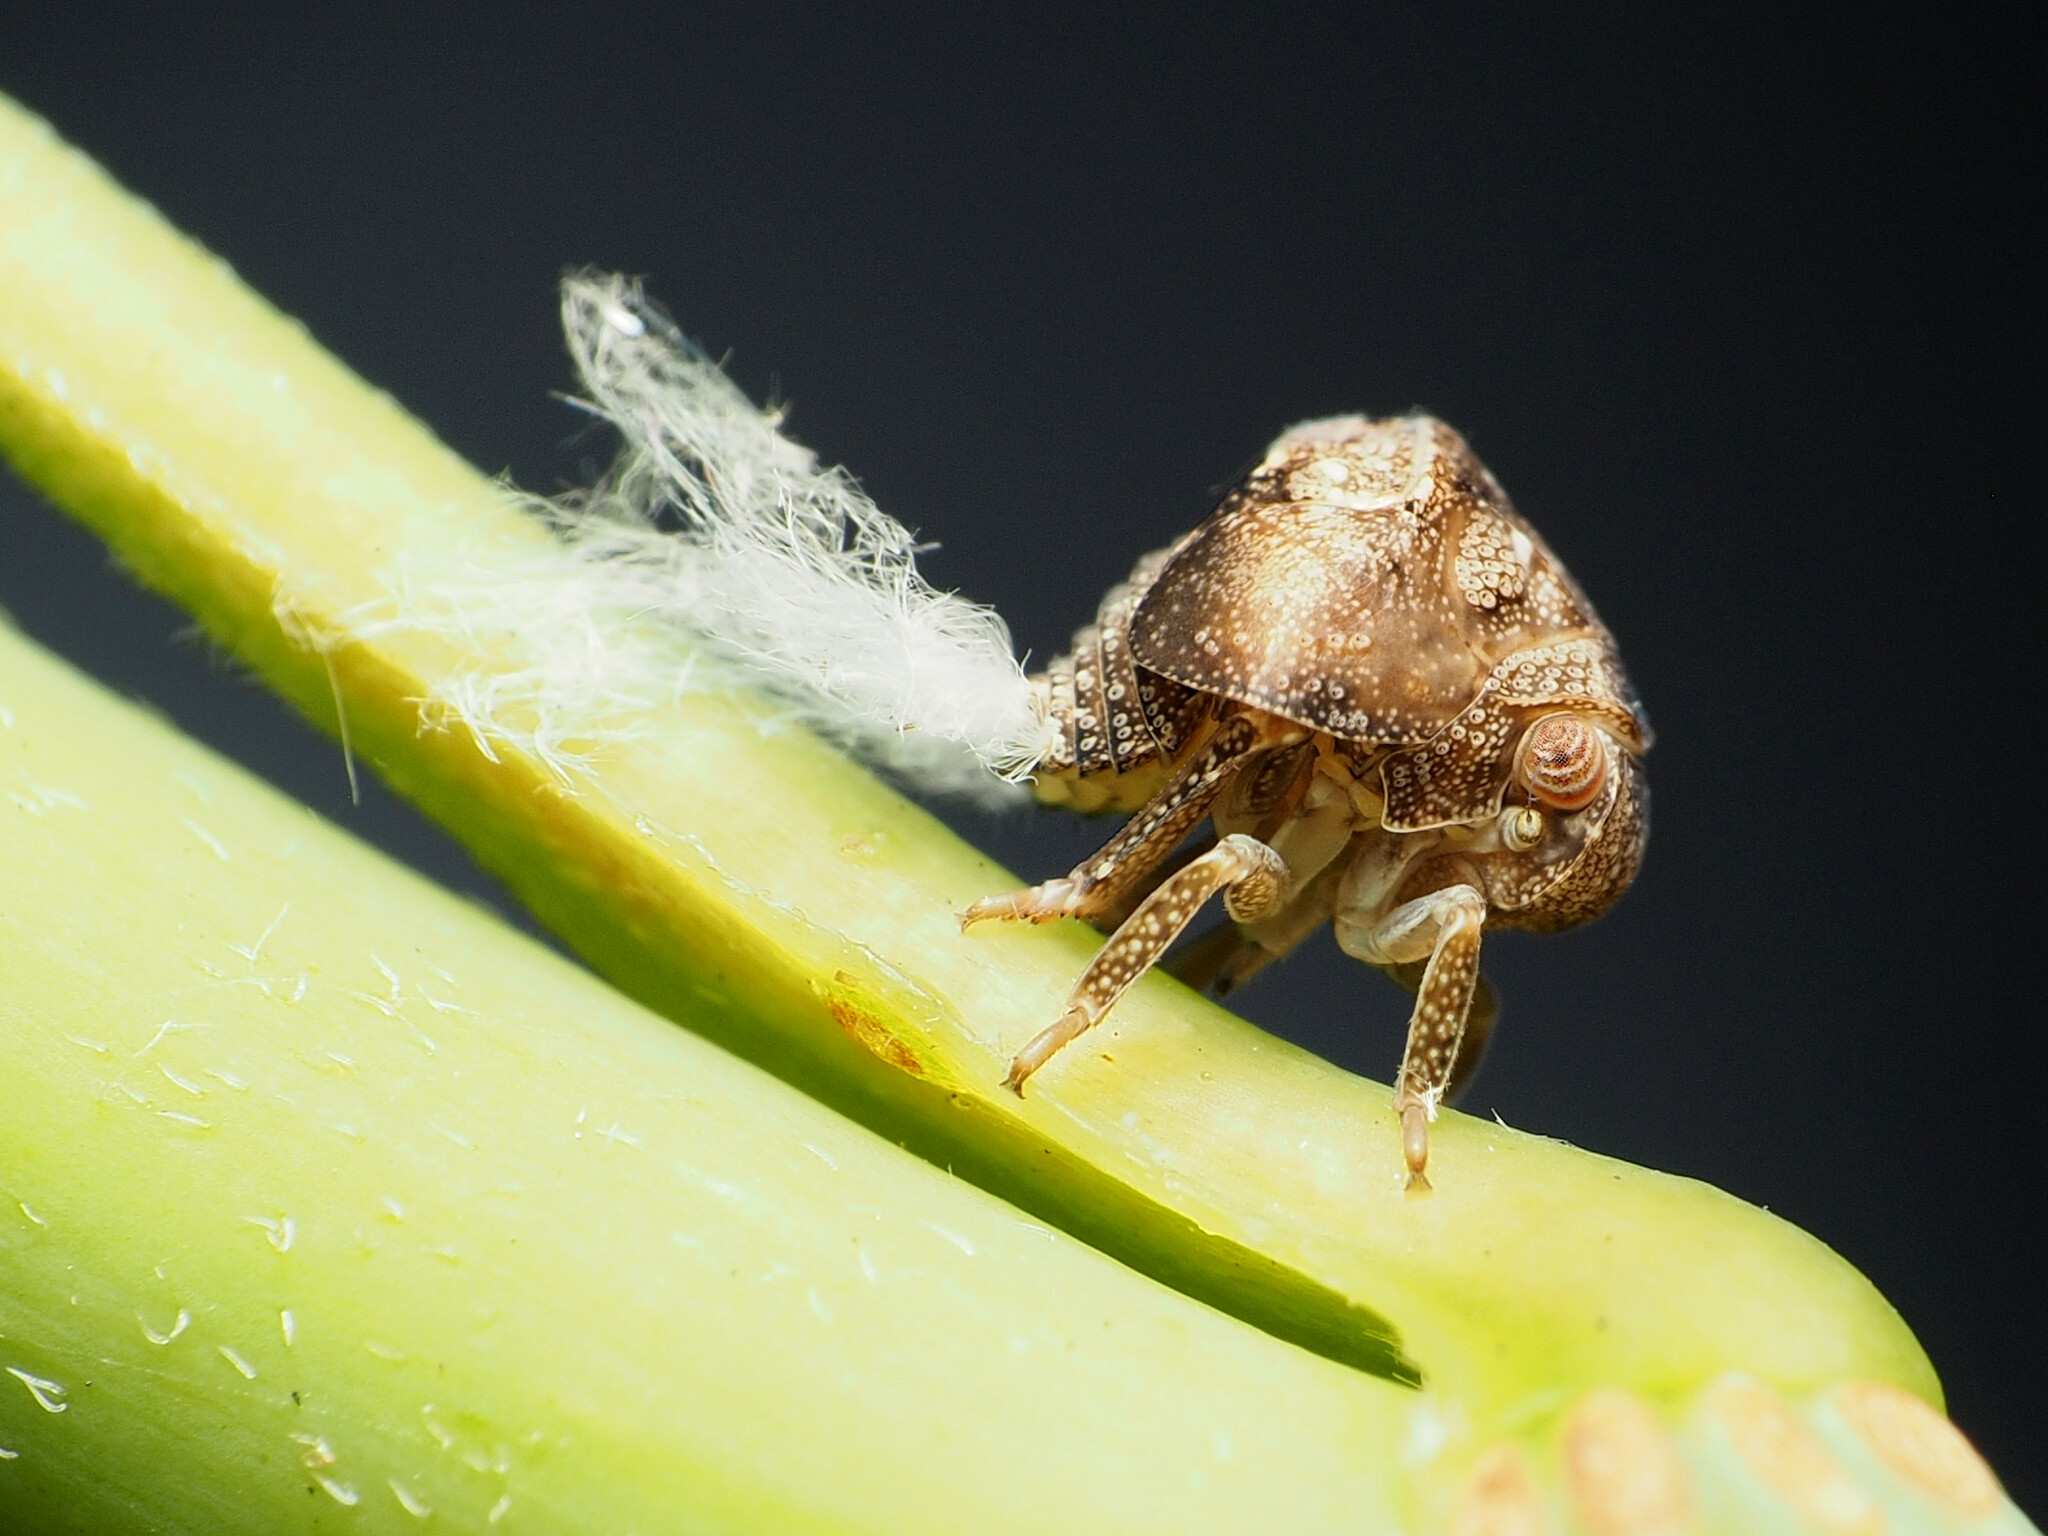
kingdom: Animalia
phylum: Arthropoda
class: Insecta
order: Hemiptera
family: Acanaloniidae
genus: Acanalonia
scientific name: Acanalonia bivittata
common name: Two-striped planthopper
